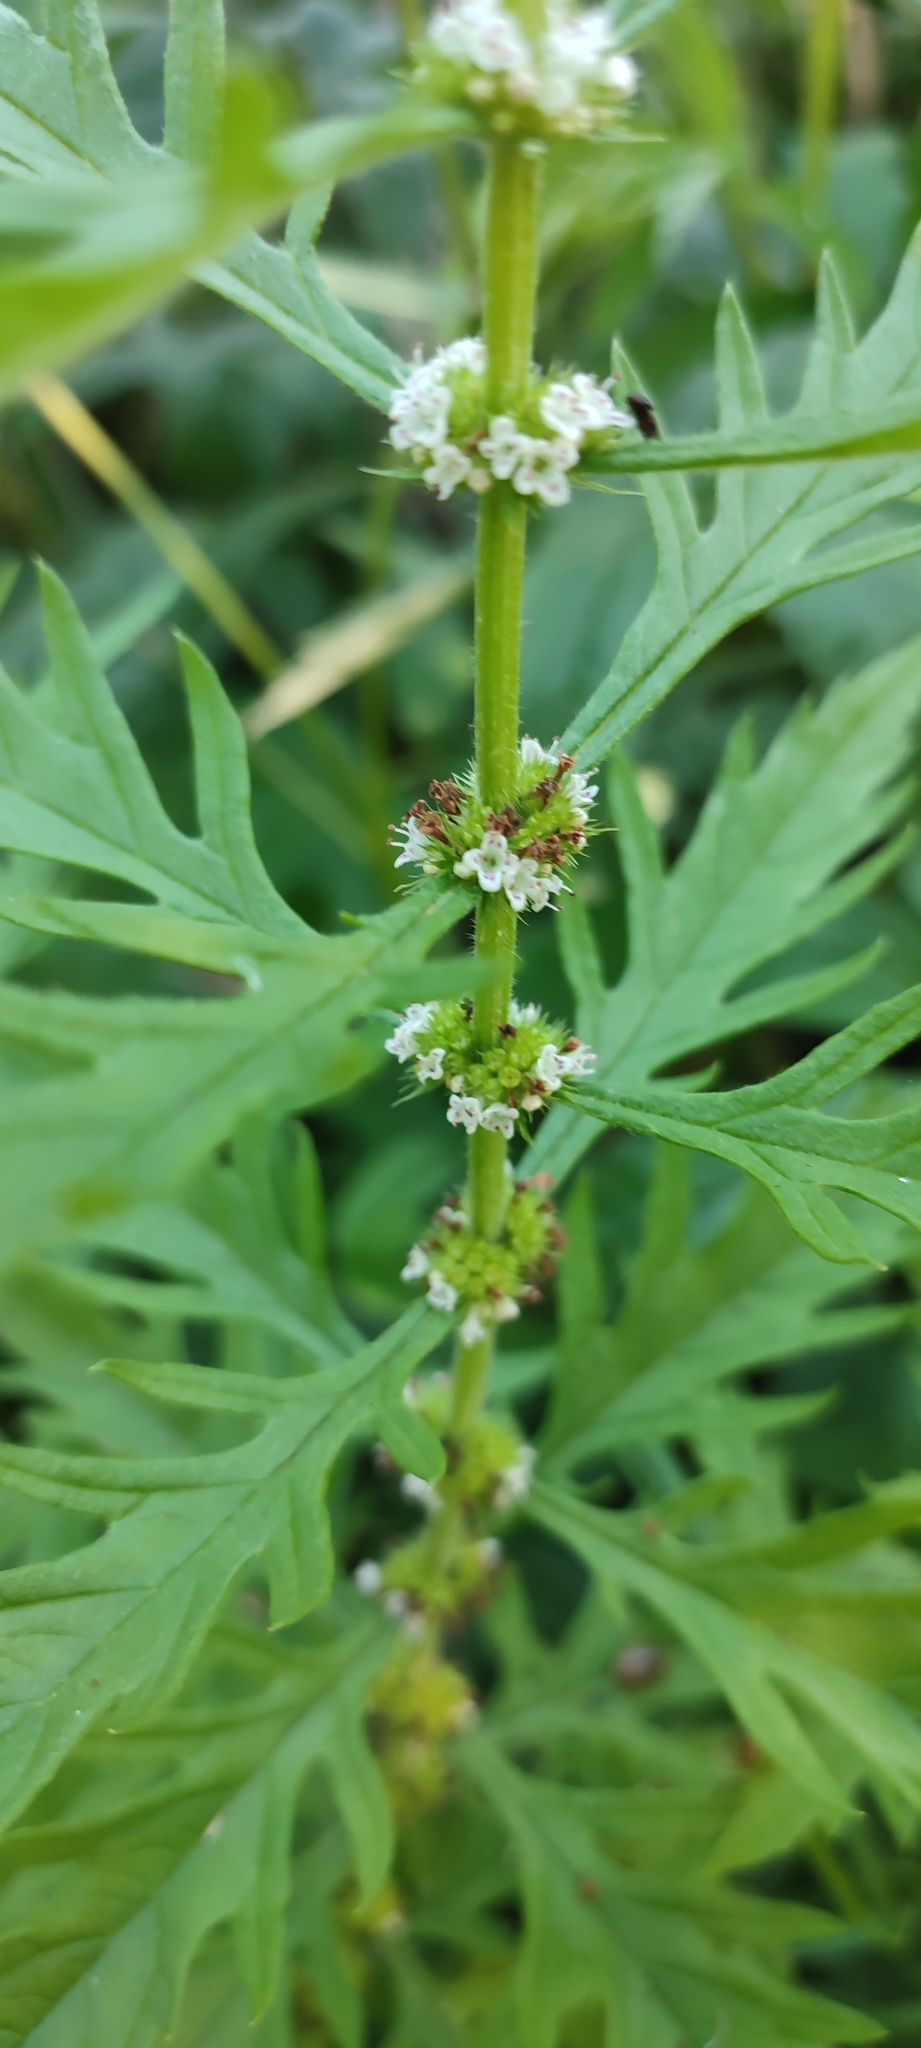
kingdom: Plantae
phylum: Tracheophyta
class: Magnoliopsida
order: Lamiales
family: Lamiaceae
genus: Lycopus
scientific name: Lycopus exaltatus
